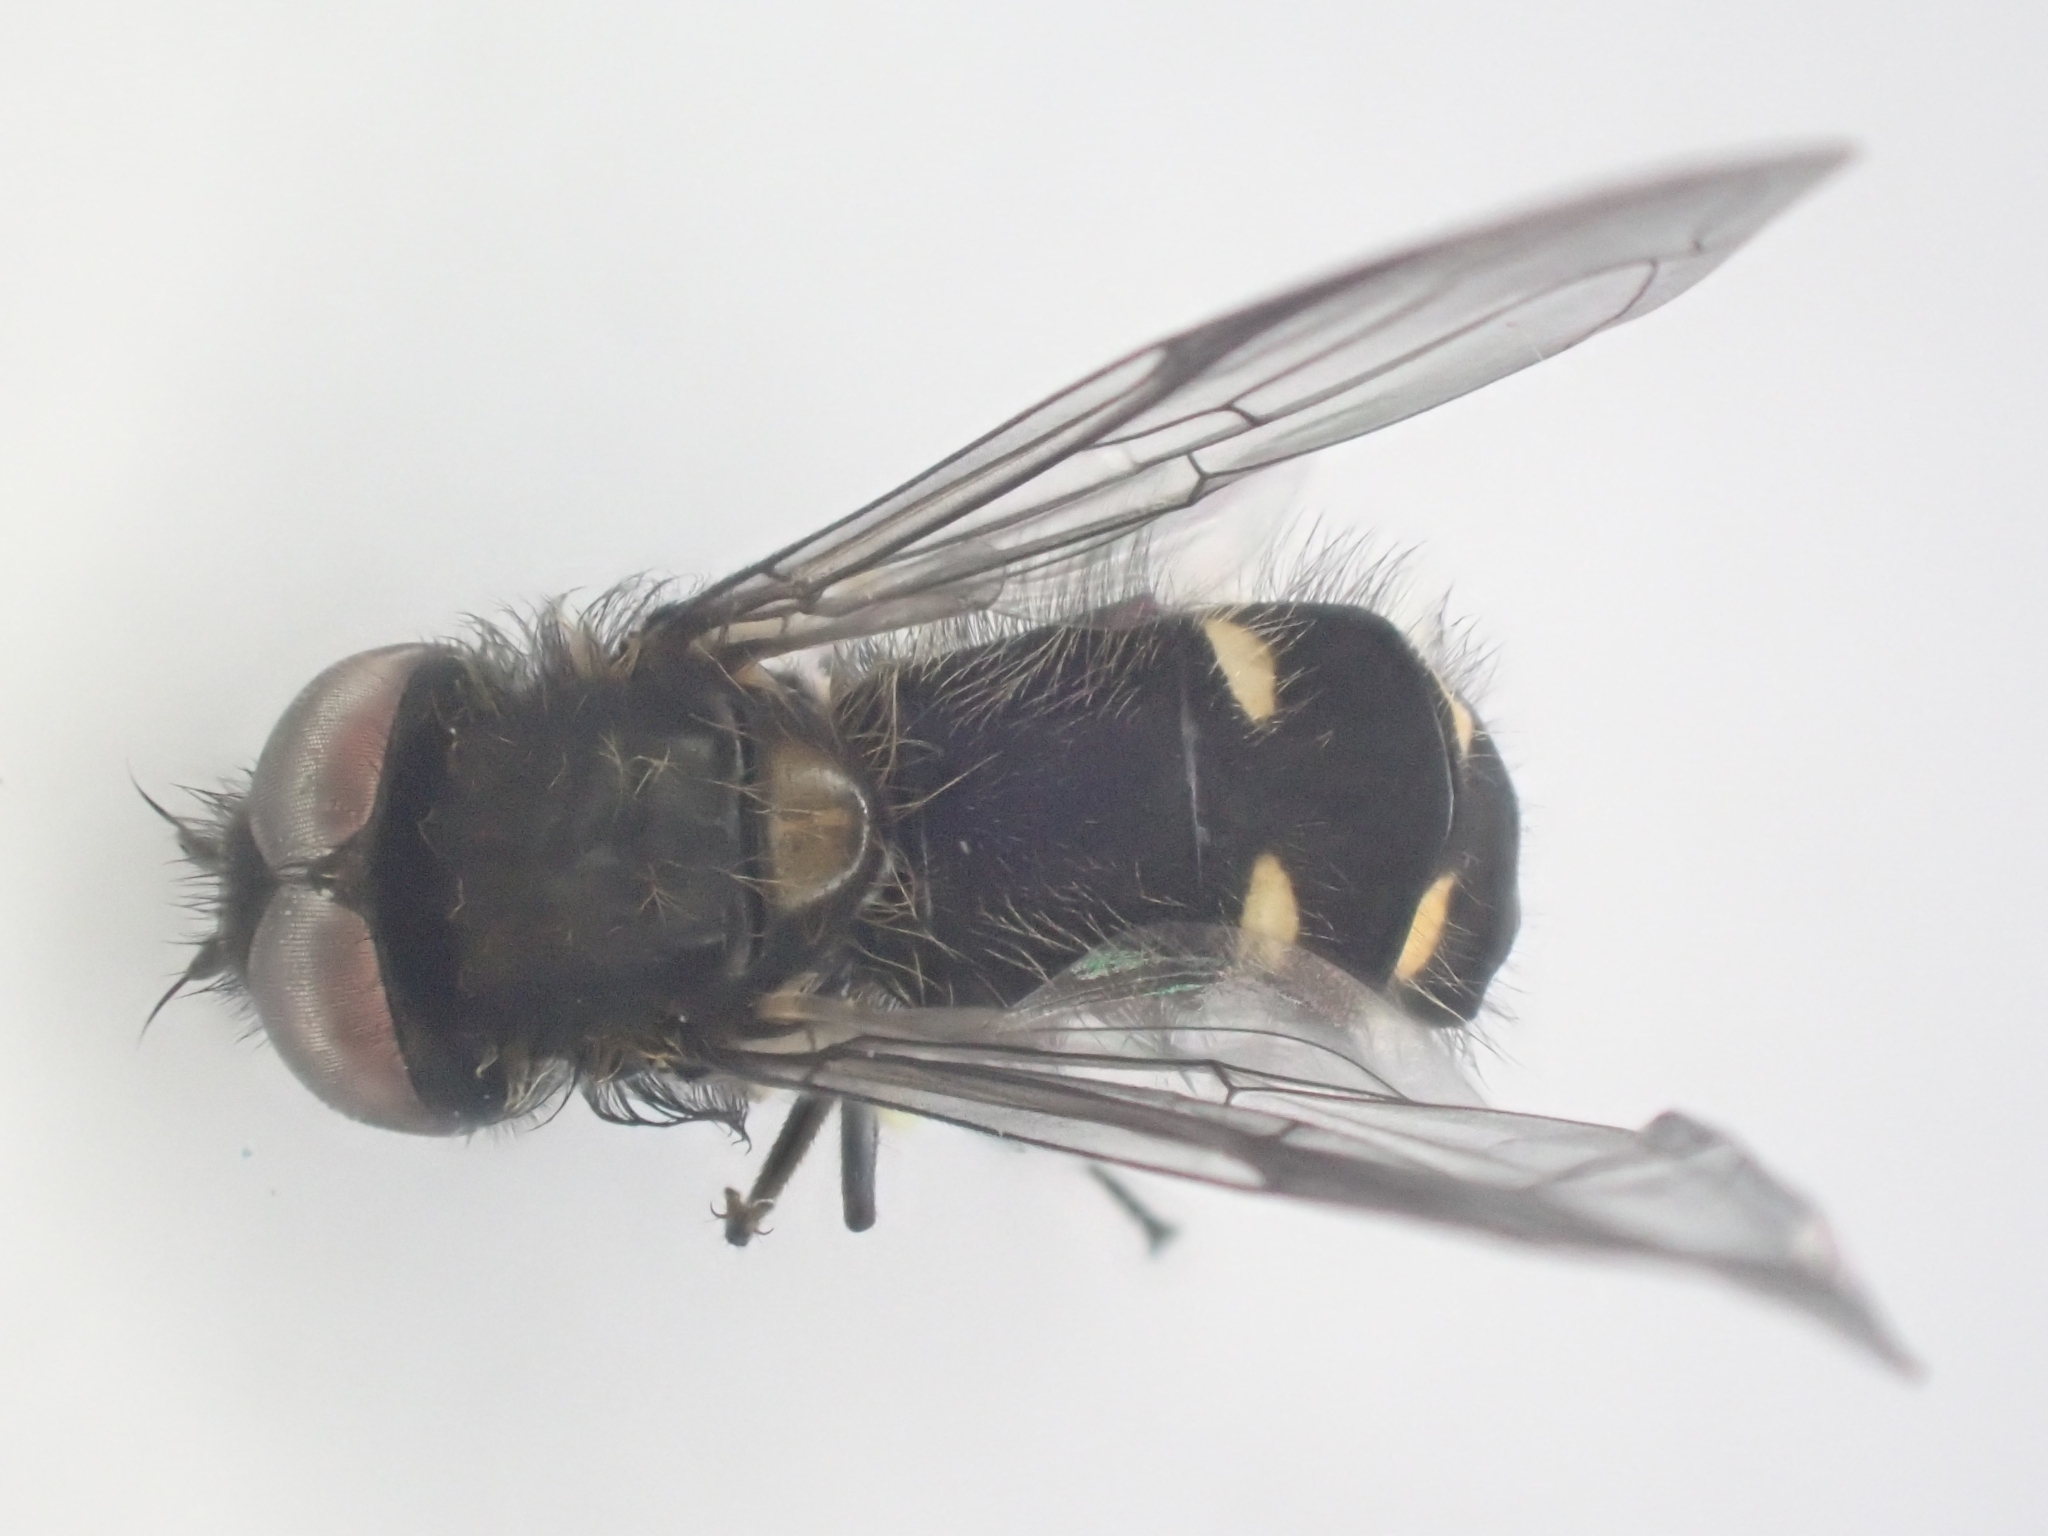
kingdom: Animalia
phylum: Arthropoda
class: Insecta
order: Diptera
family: Syrphidae
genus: Melangyna
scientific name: Melangyna quadrimaculata
